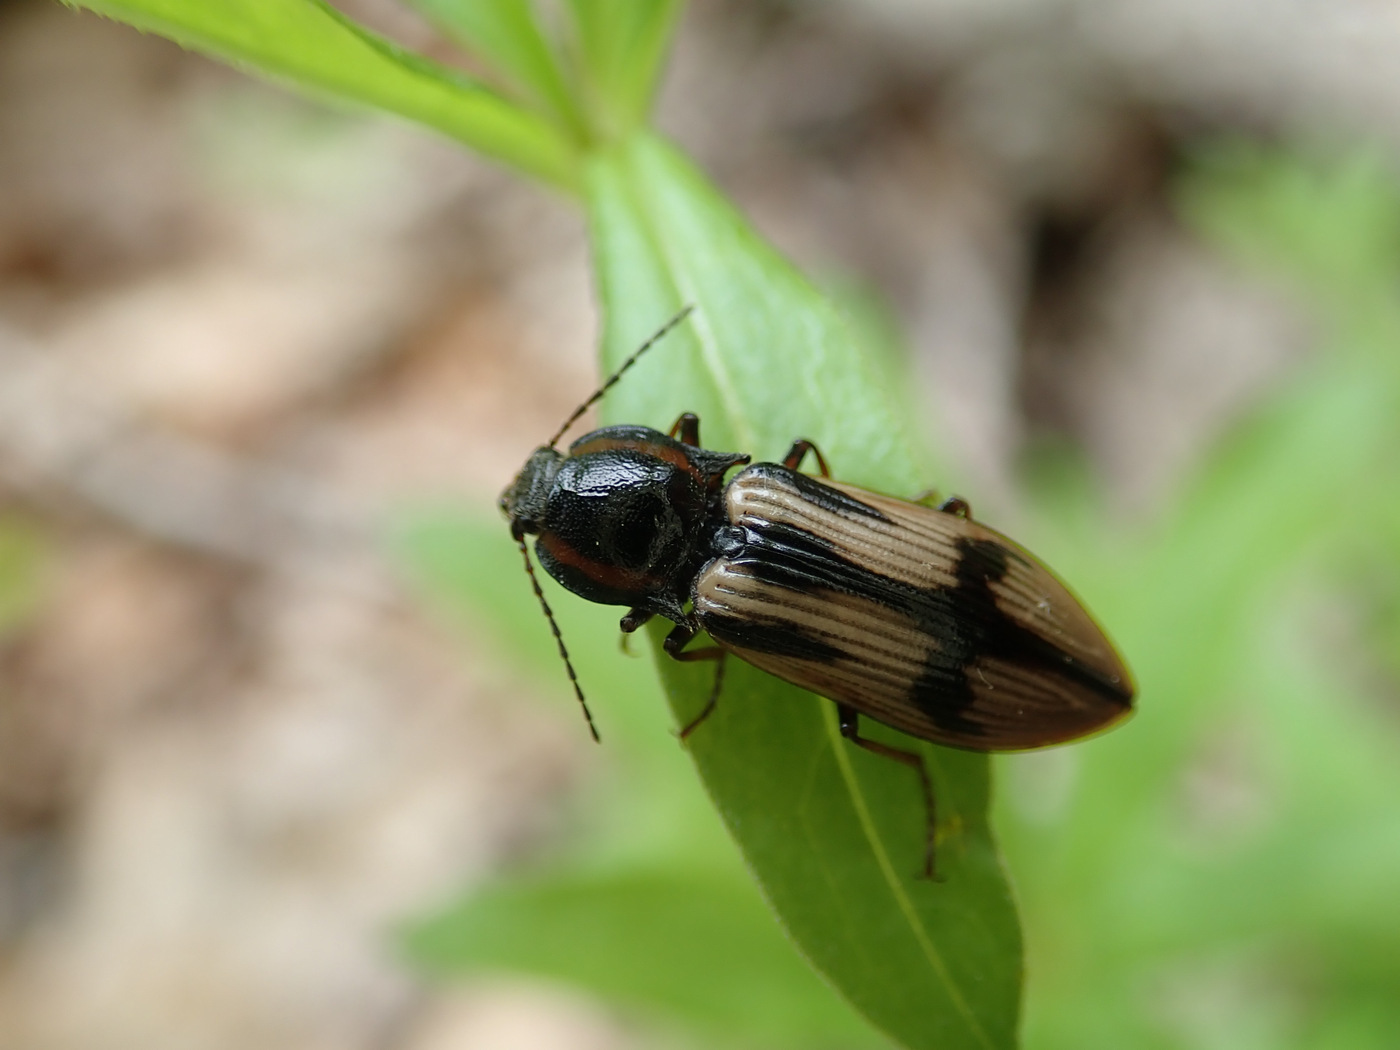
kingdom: Animalia
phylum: Arthropoda
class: Insecta
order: Coleoptera
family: Elateridae
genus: Selatosomus
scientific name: Selatosomus pulcher
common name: Noble click beetle
